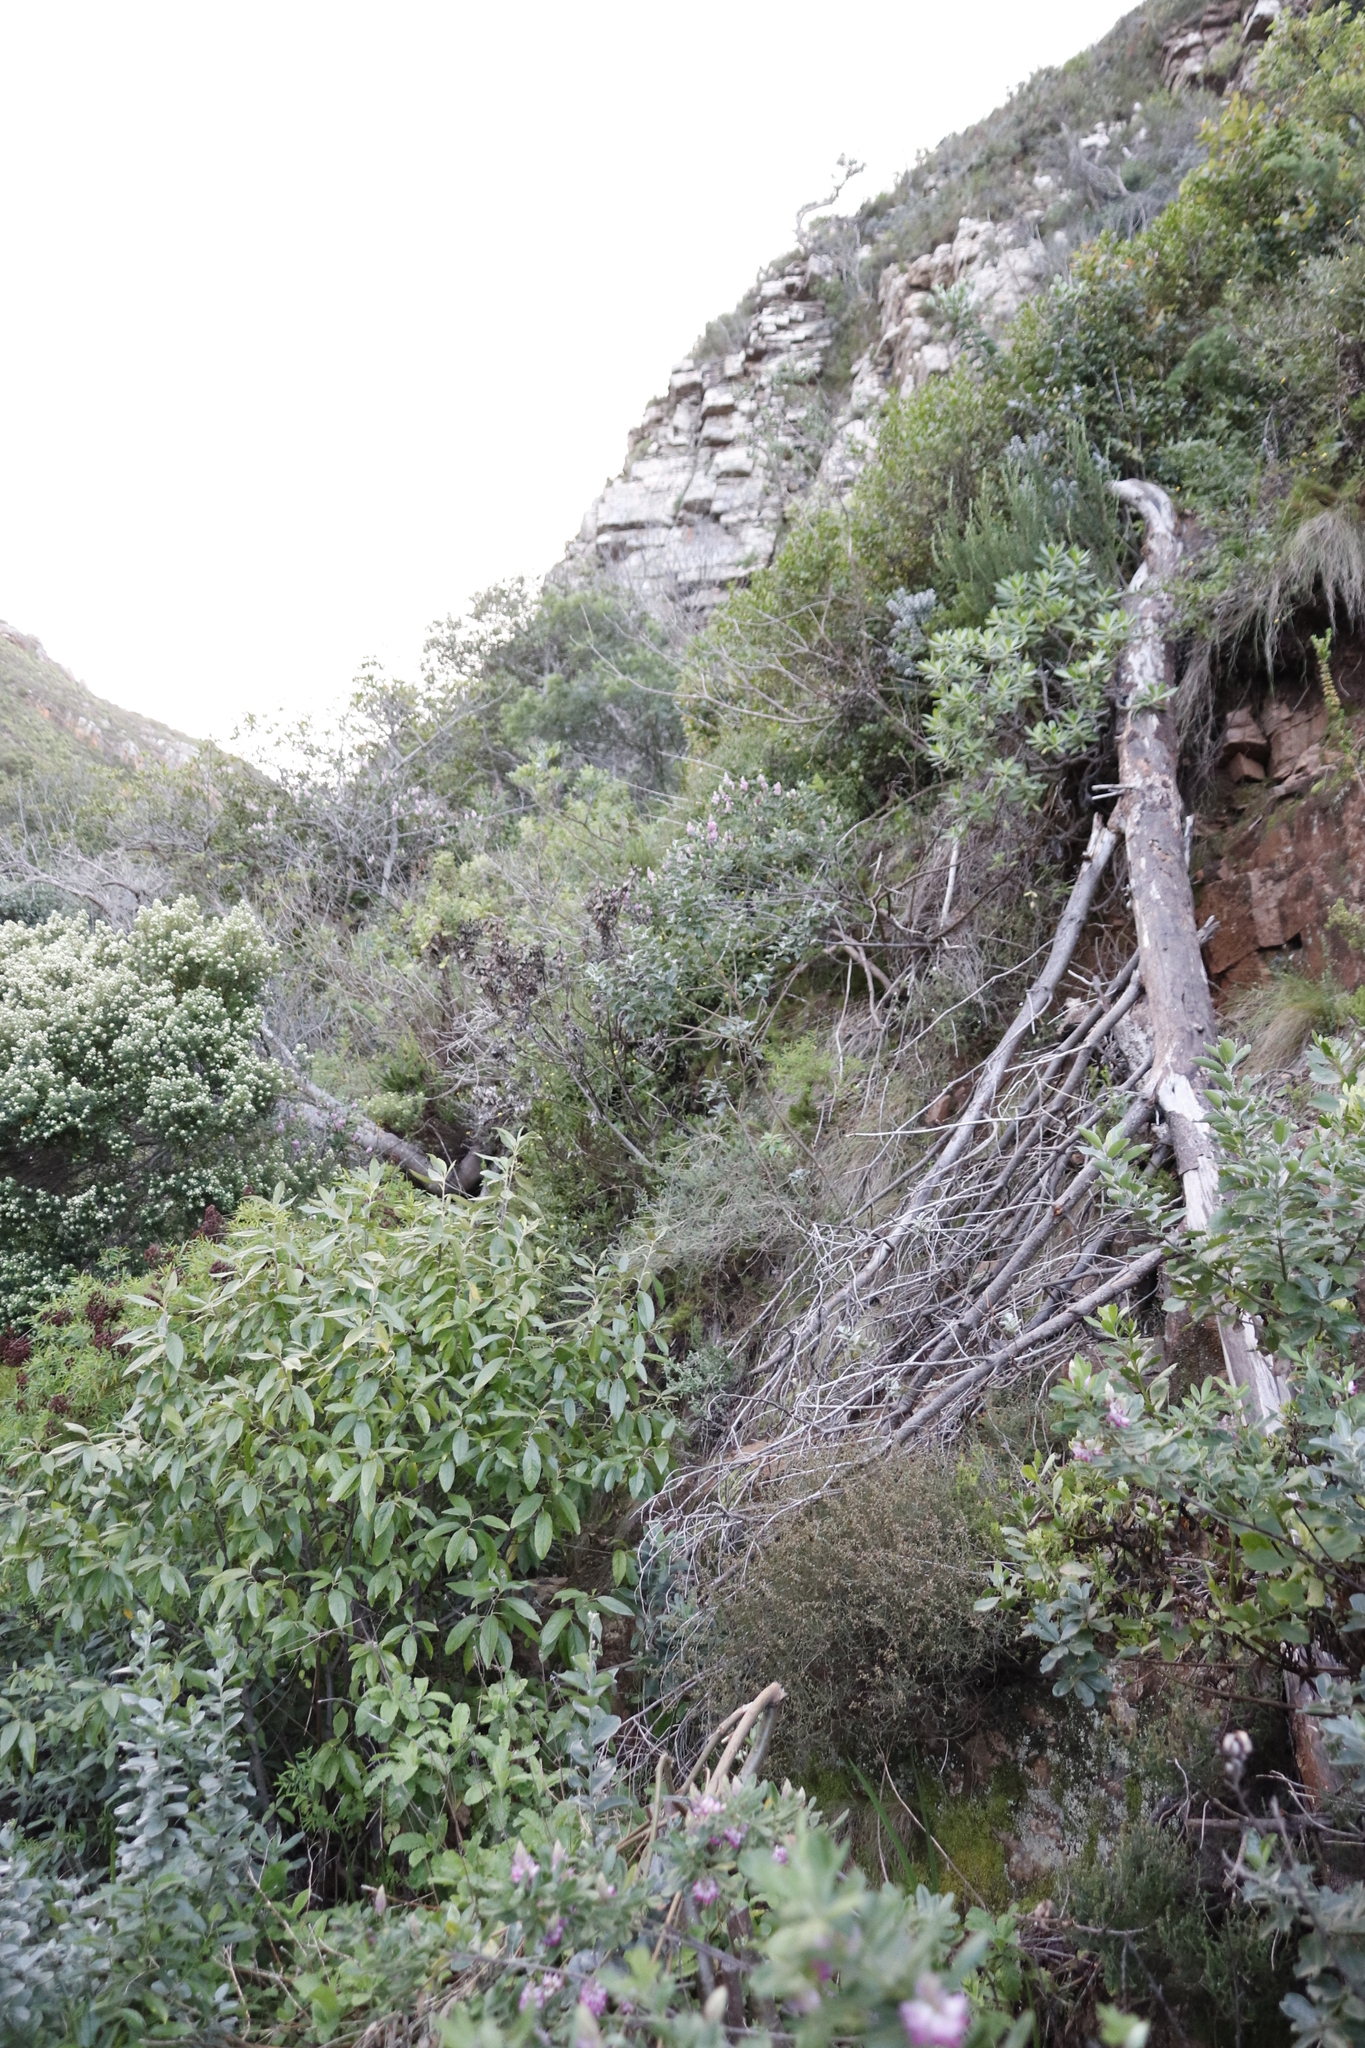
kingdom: Plantae
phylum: Tracheophyta
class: Magnoliopsida
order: Fabales
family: Fabaceae
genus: Indigofera
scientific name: Indigofera cytisoides
